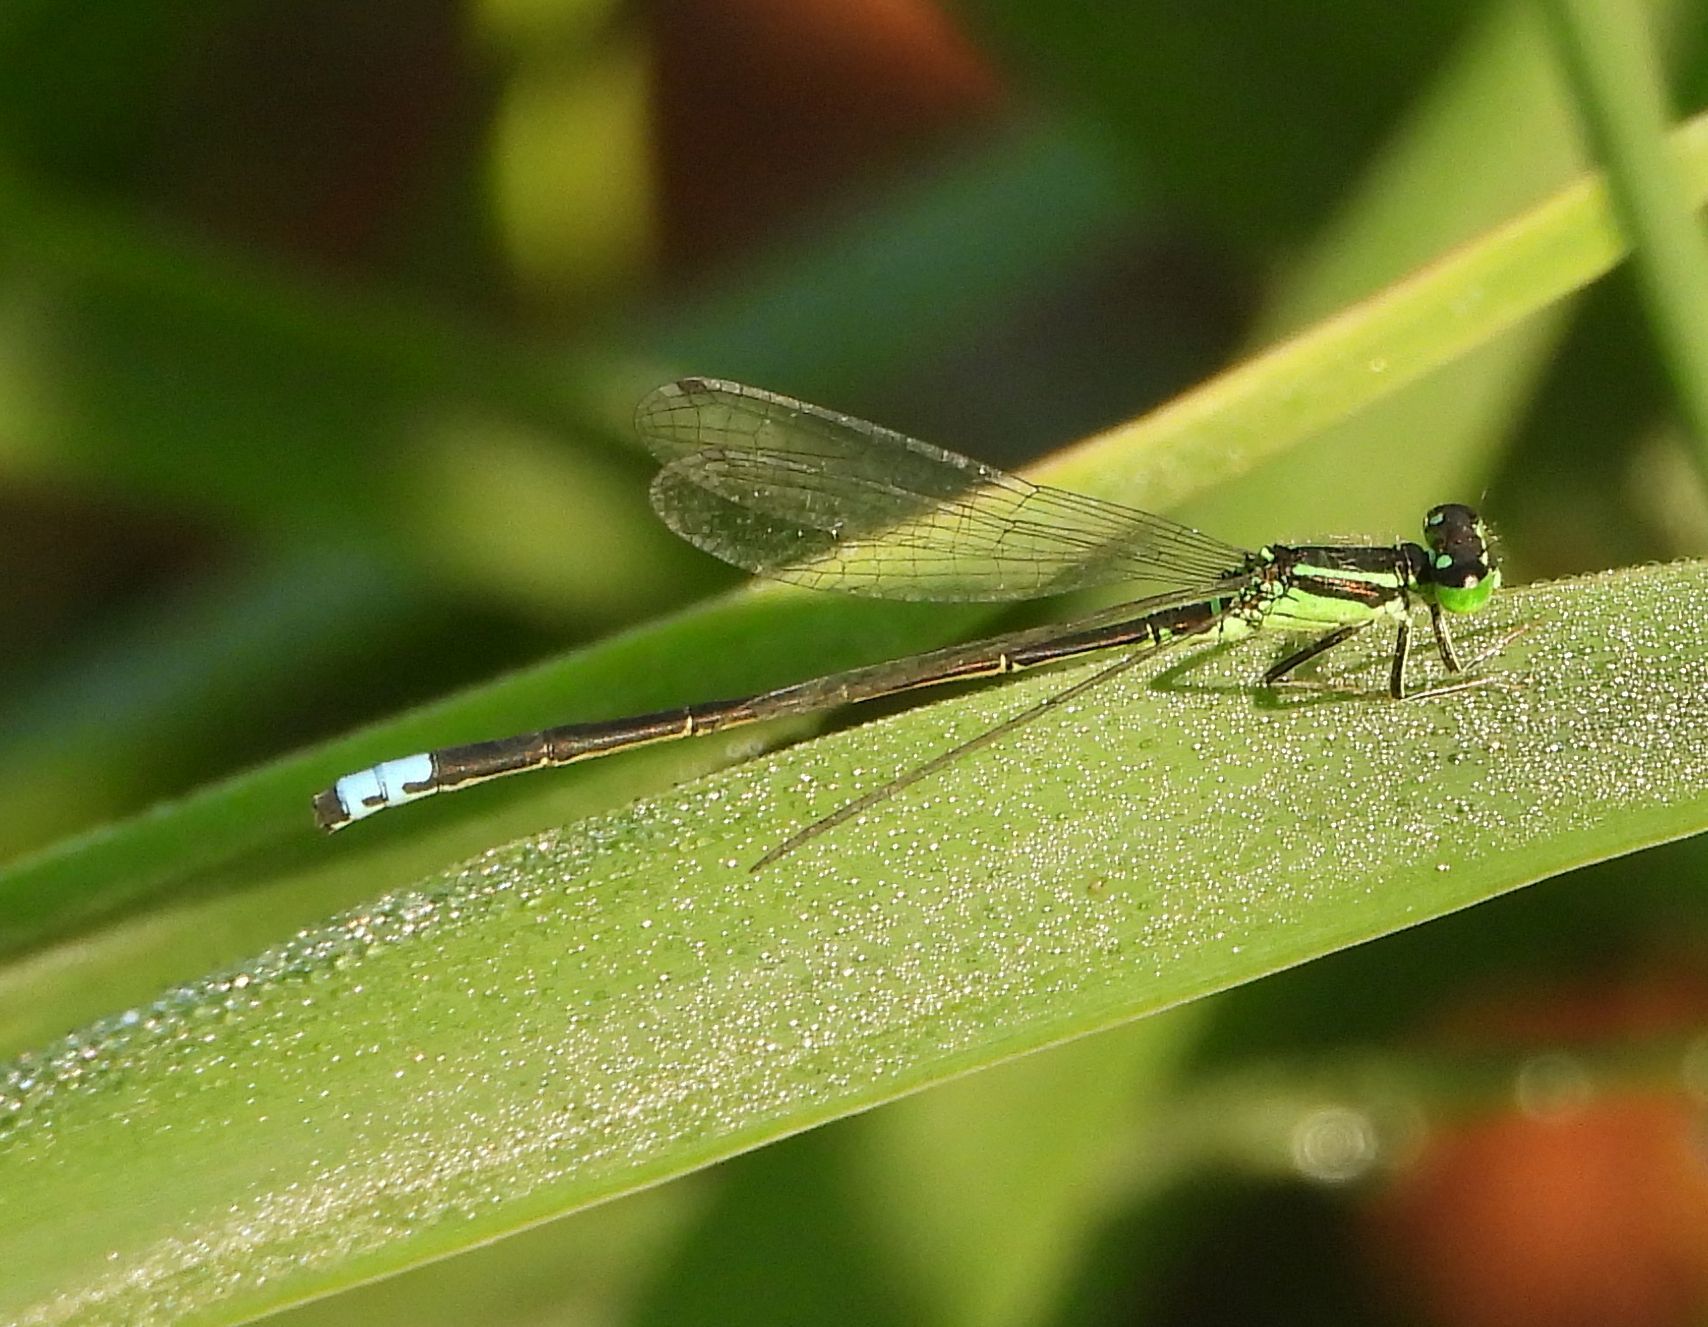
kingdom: Animalia
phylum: Arthropoda
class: Insecta
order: Odonata
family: Coenagrionidae
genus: Ischnura
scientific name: Ischnura verticalis
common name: Eastern forktail
